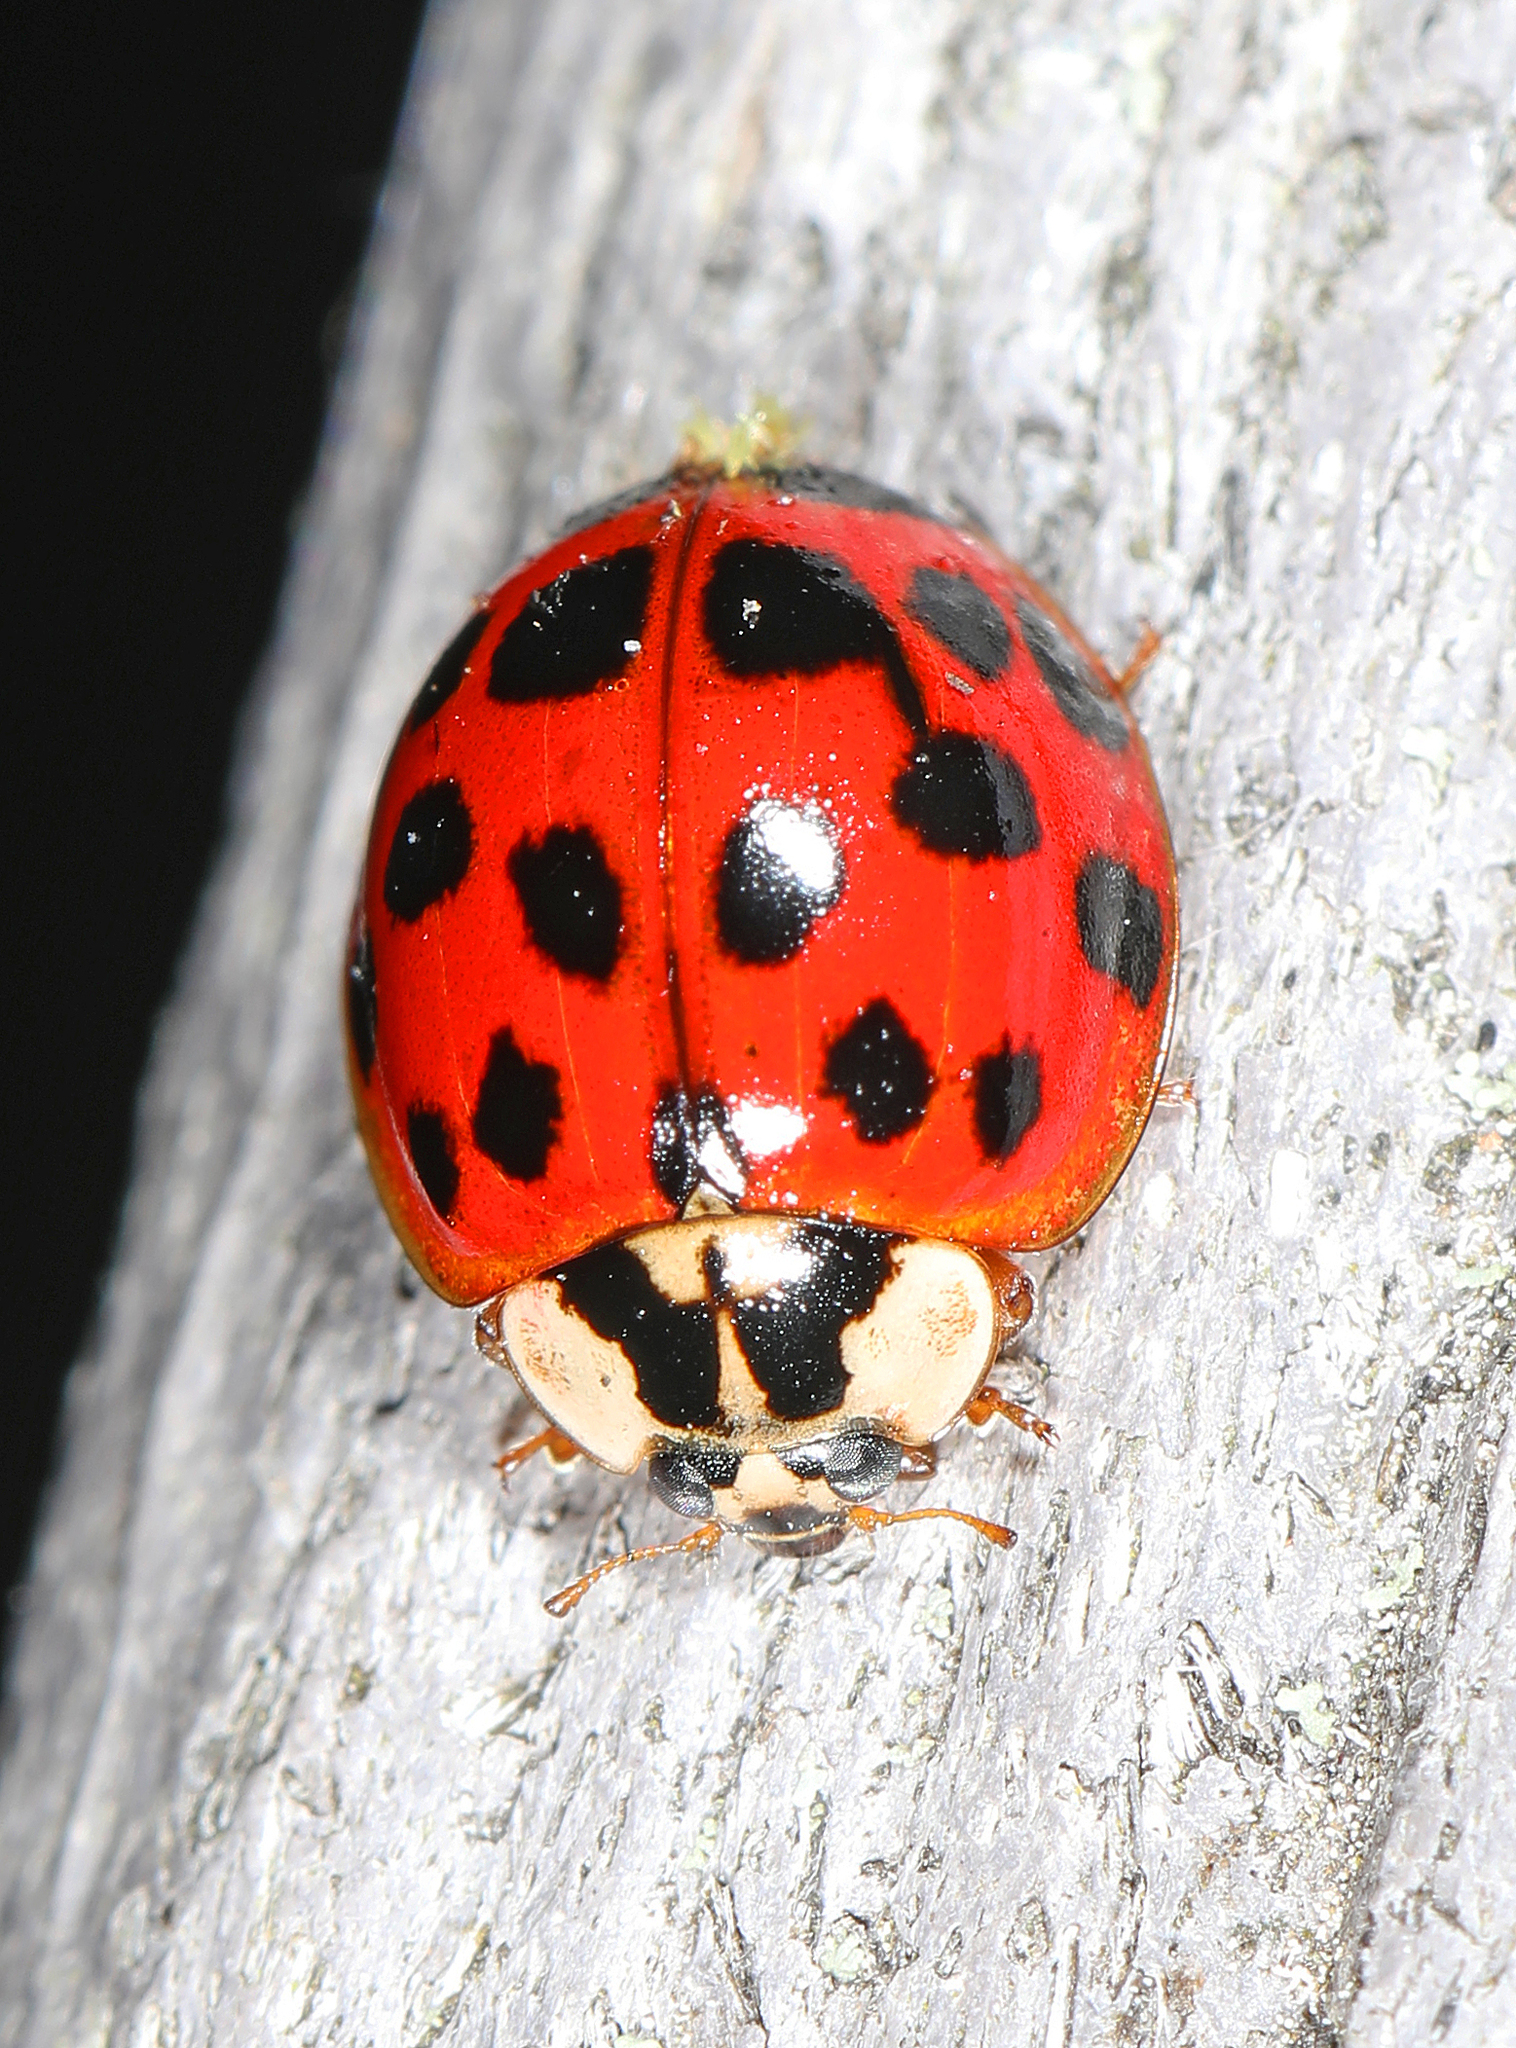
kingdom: Animalia
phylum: Arthropoda
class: Insecta
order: Coleoptera
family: Coccinellidae
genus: Harmonia
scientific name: Harmonia axyridis
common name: Harlequin ladybird
